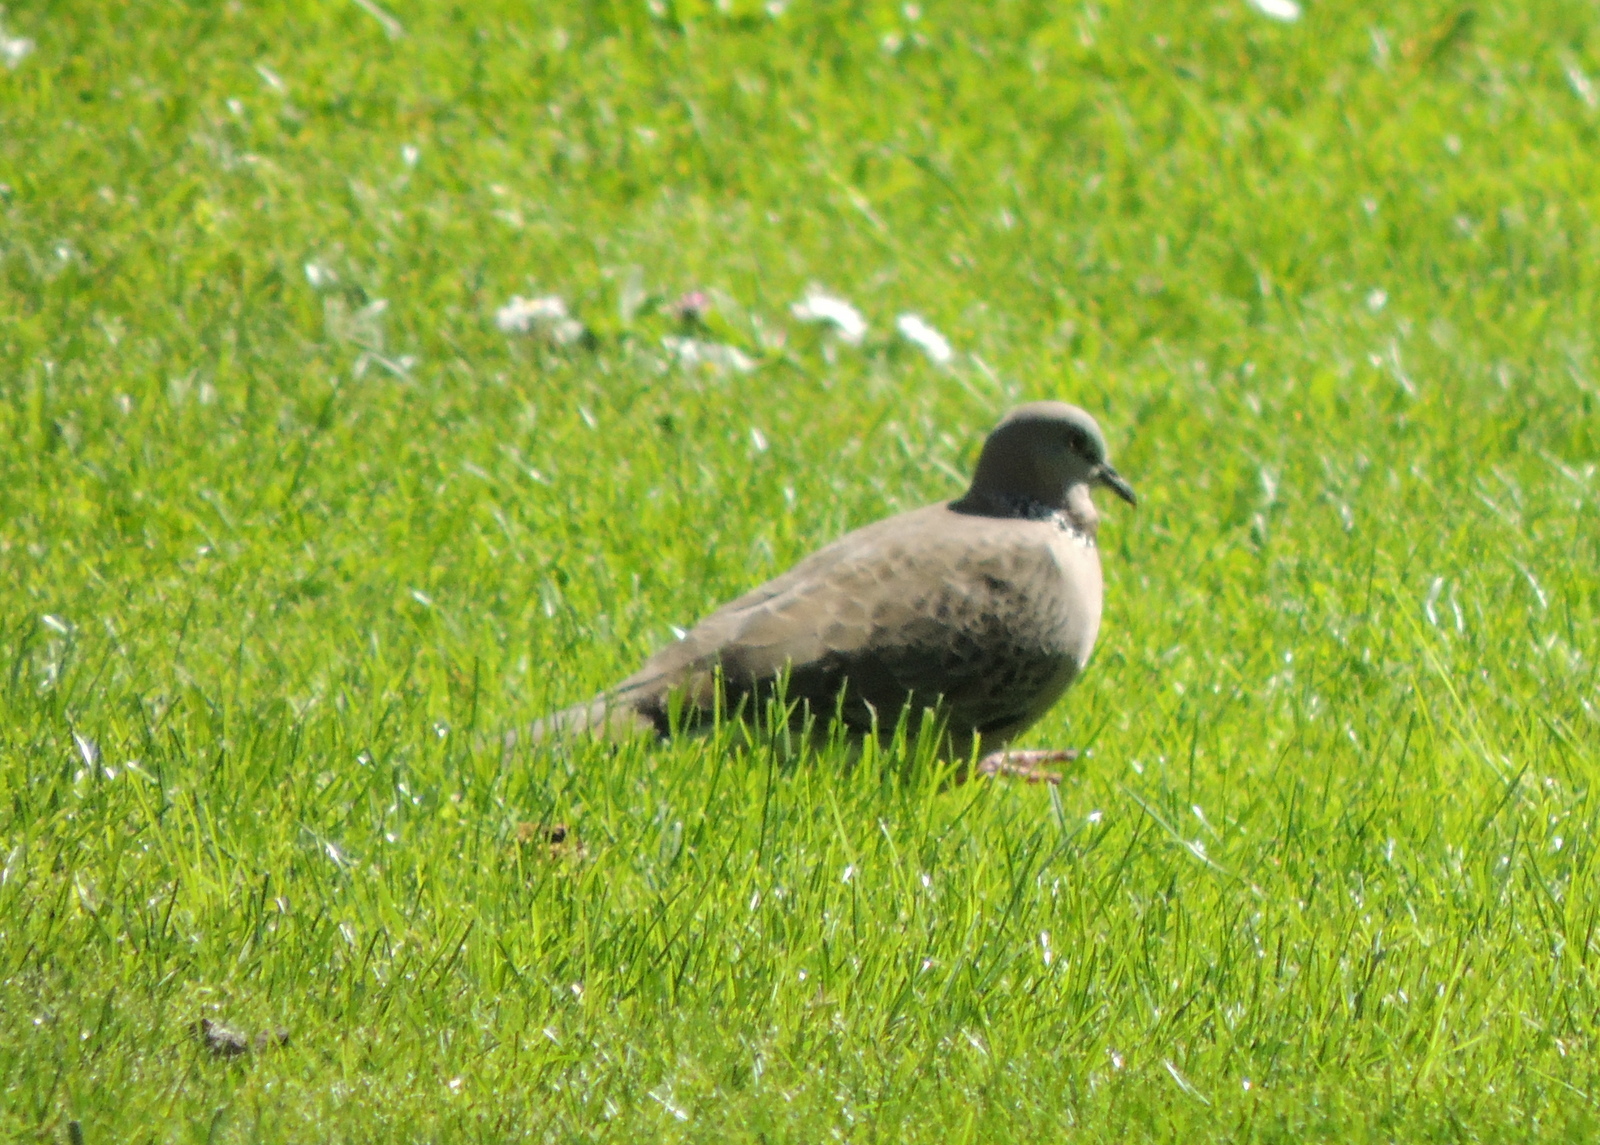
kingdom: Animalia
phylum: Chordata
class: Aves
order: Columbiformes
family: Columbidae
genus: Spilopelia
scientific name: Spilopelia chinensis
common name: Spotted dove
